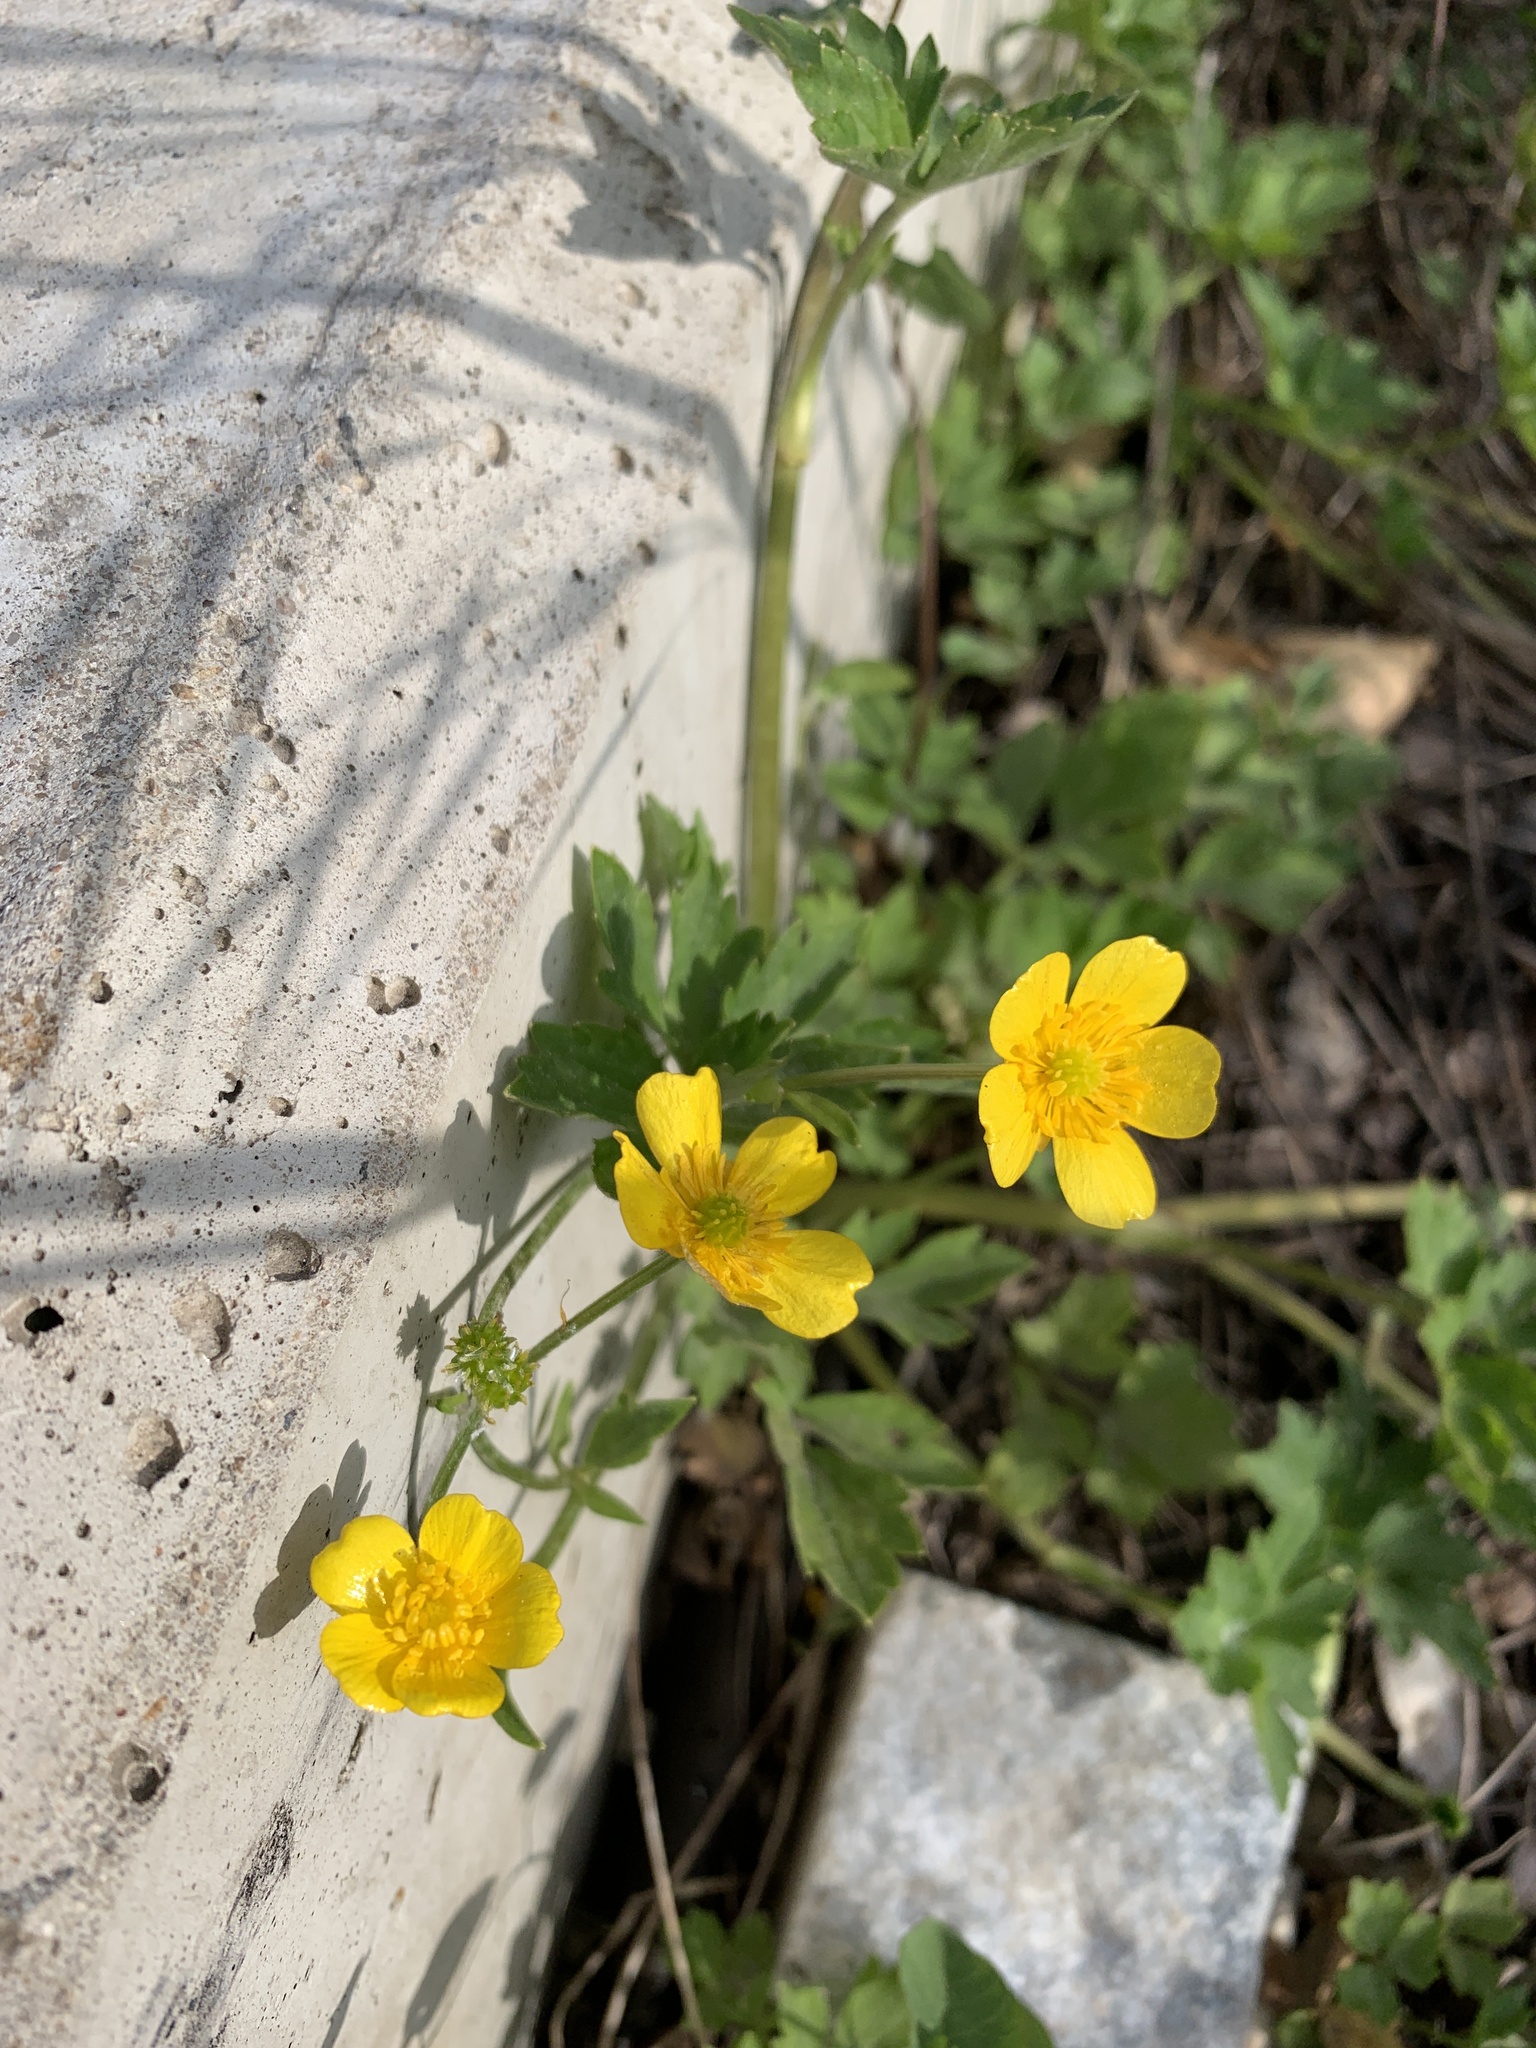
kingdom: Plantae
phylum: Tracheophyta
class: Magnoliopsida
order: Ranunculales
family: Ranunculaceae
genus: Ranunculus
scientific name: Ranunculus repens
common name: Creeping buttercup
